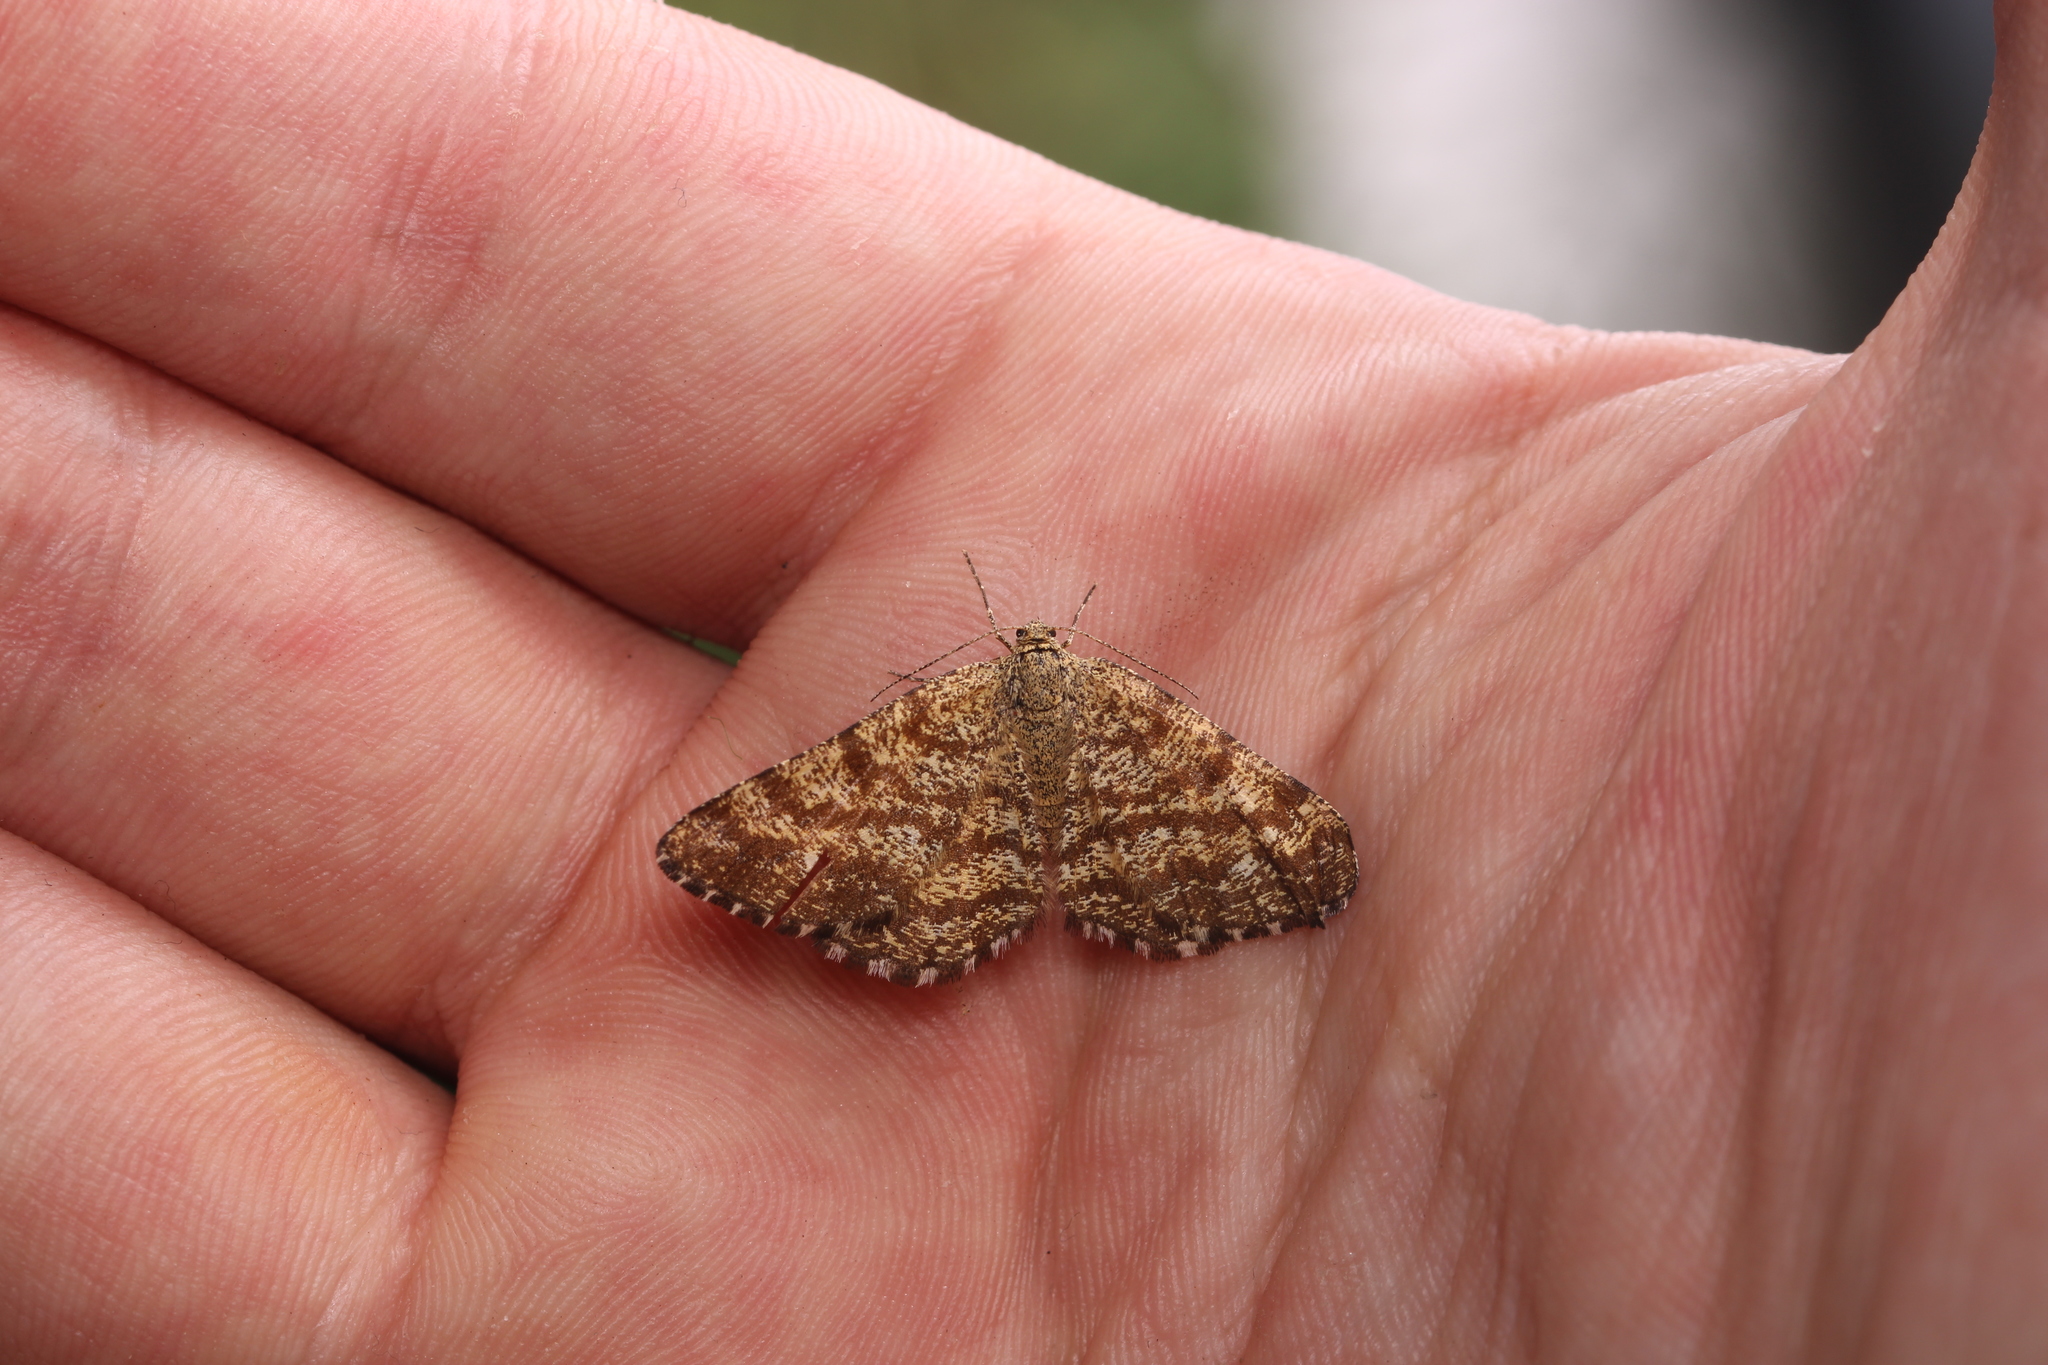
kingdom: Animalia
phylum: Arthropoda
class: Insecta
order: Lepidoptera
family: Geometridae
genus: Ematurga
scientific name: Ematurga atomaria
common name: Common heath
